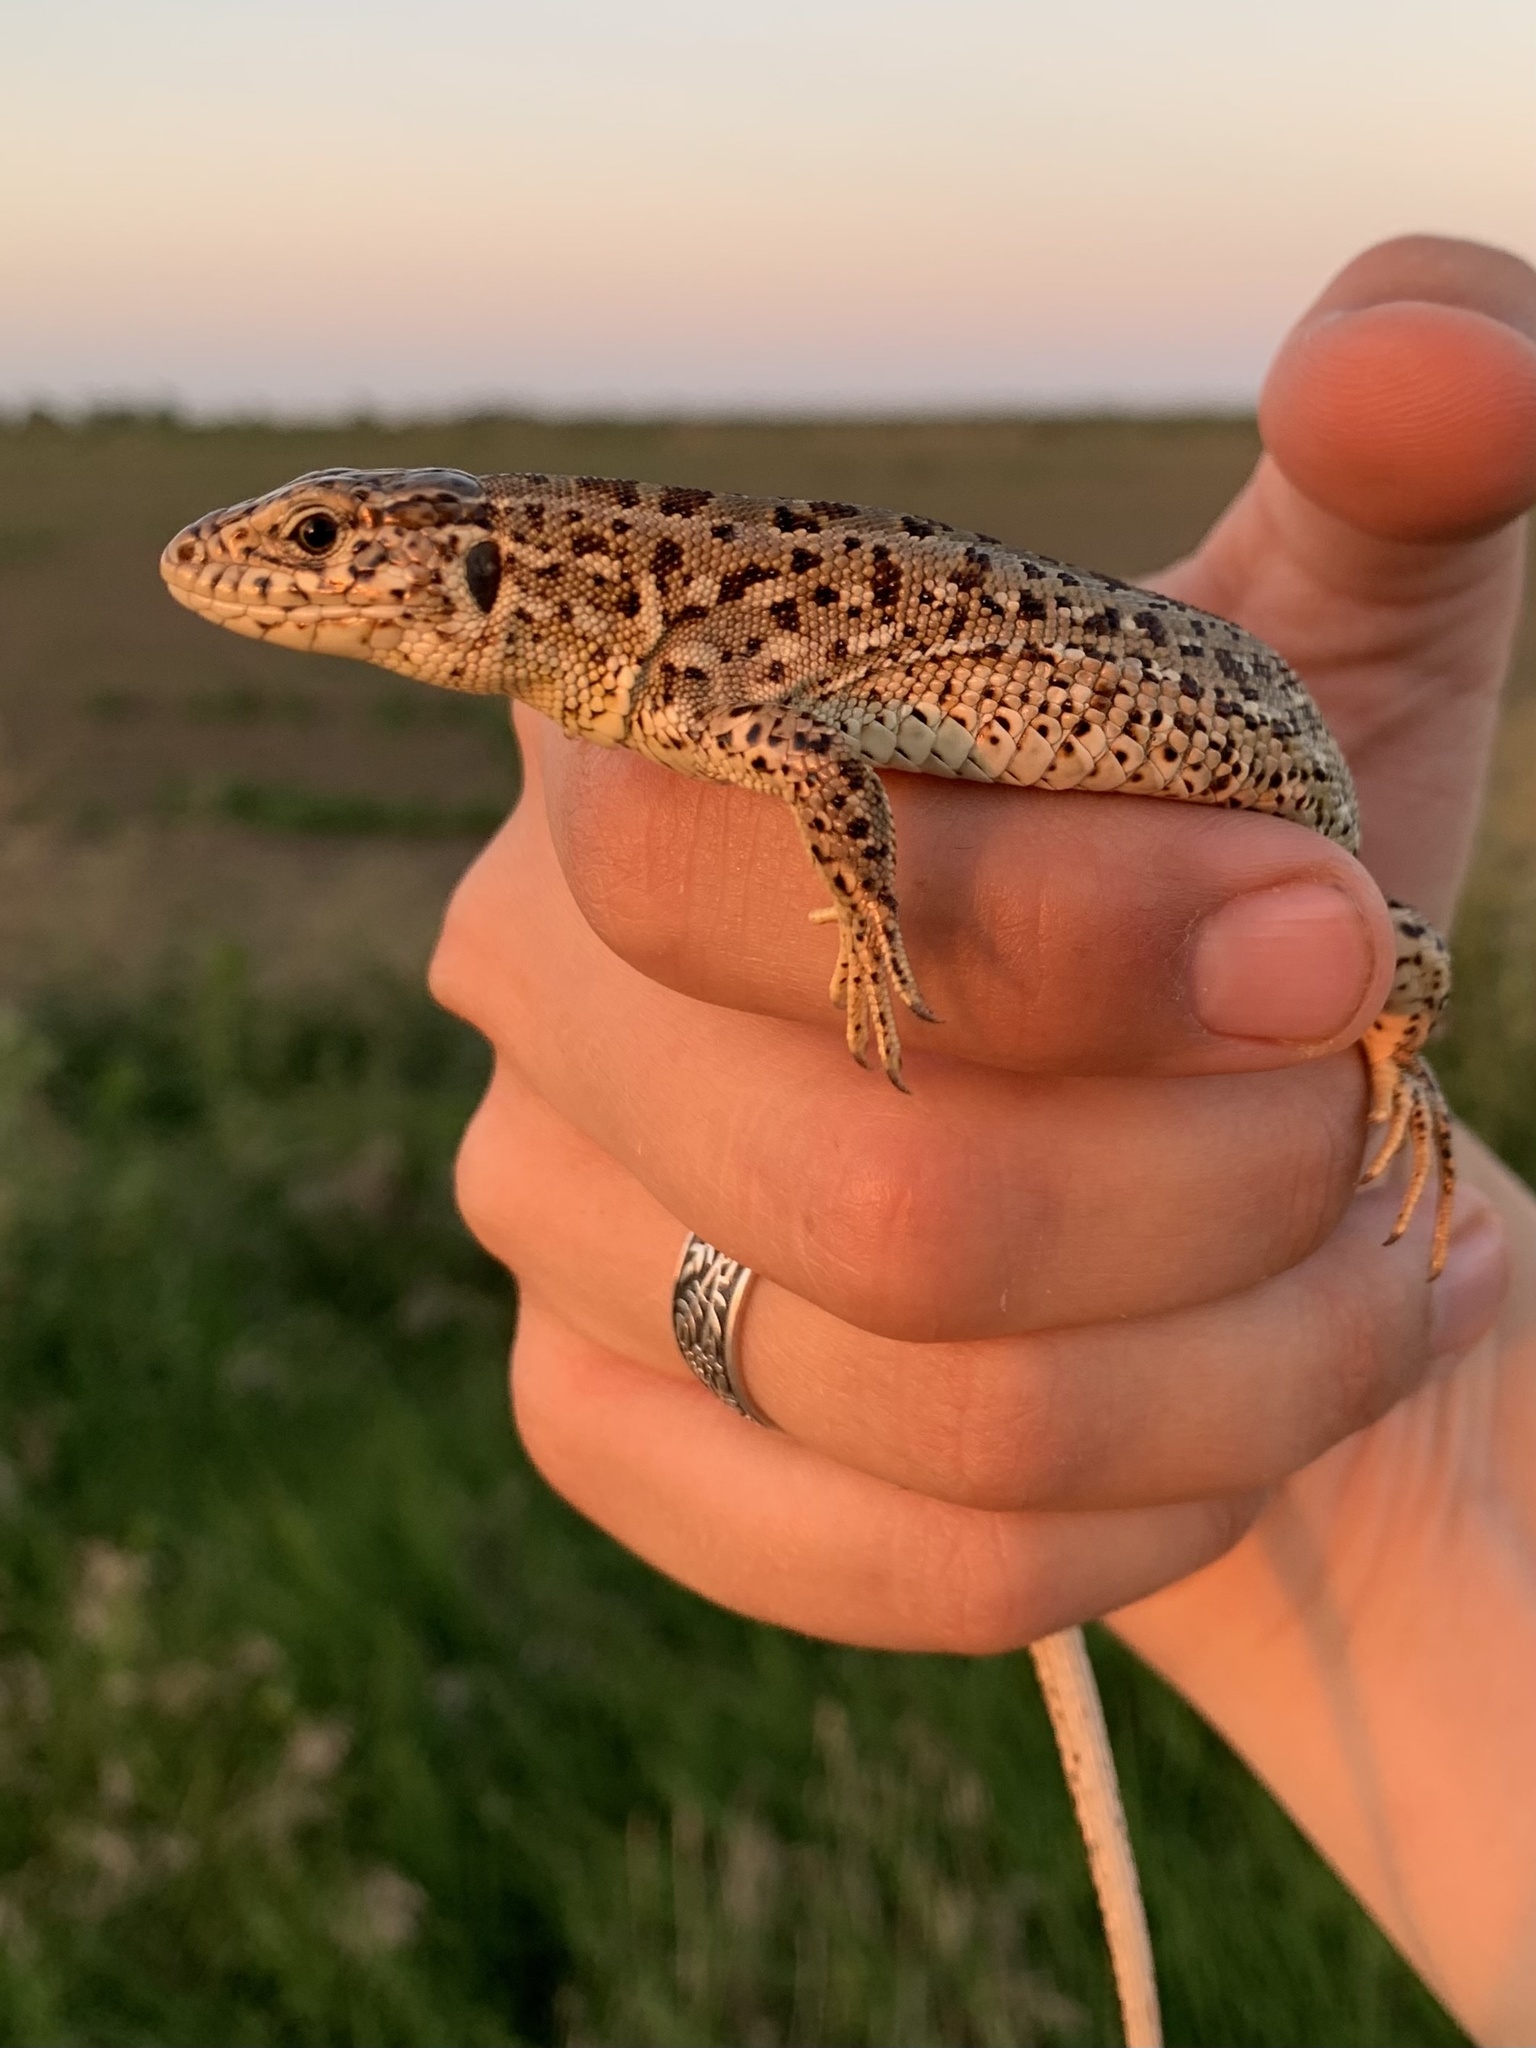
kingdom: Animalia
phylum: Chordata
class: Squamata
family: Lacertidae
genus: Lacerta
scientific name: Lacerta agilis
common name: Sand lizard
